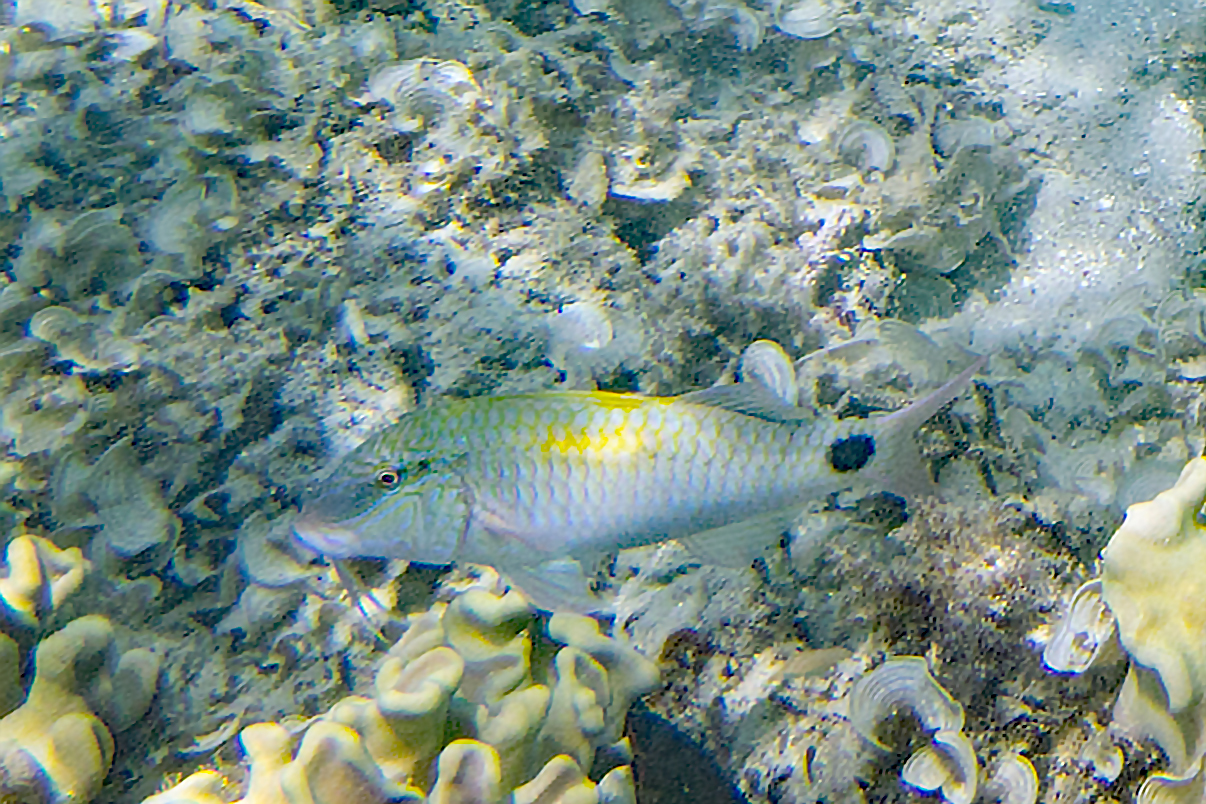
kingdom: Animalia
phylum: Chordata
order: Perciformes
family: Mullidae
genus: Parupeneus
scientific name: Parupeneus indicus
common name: Indian goatfish
